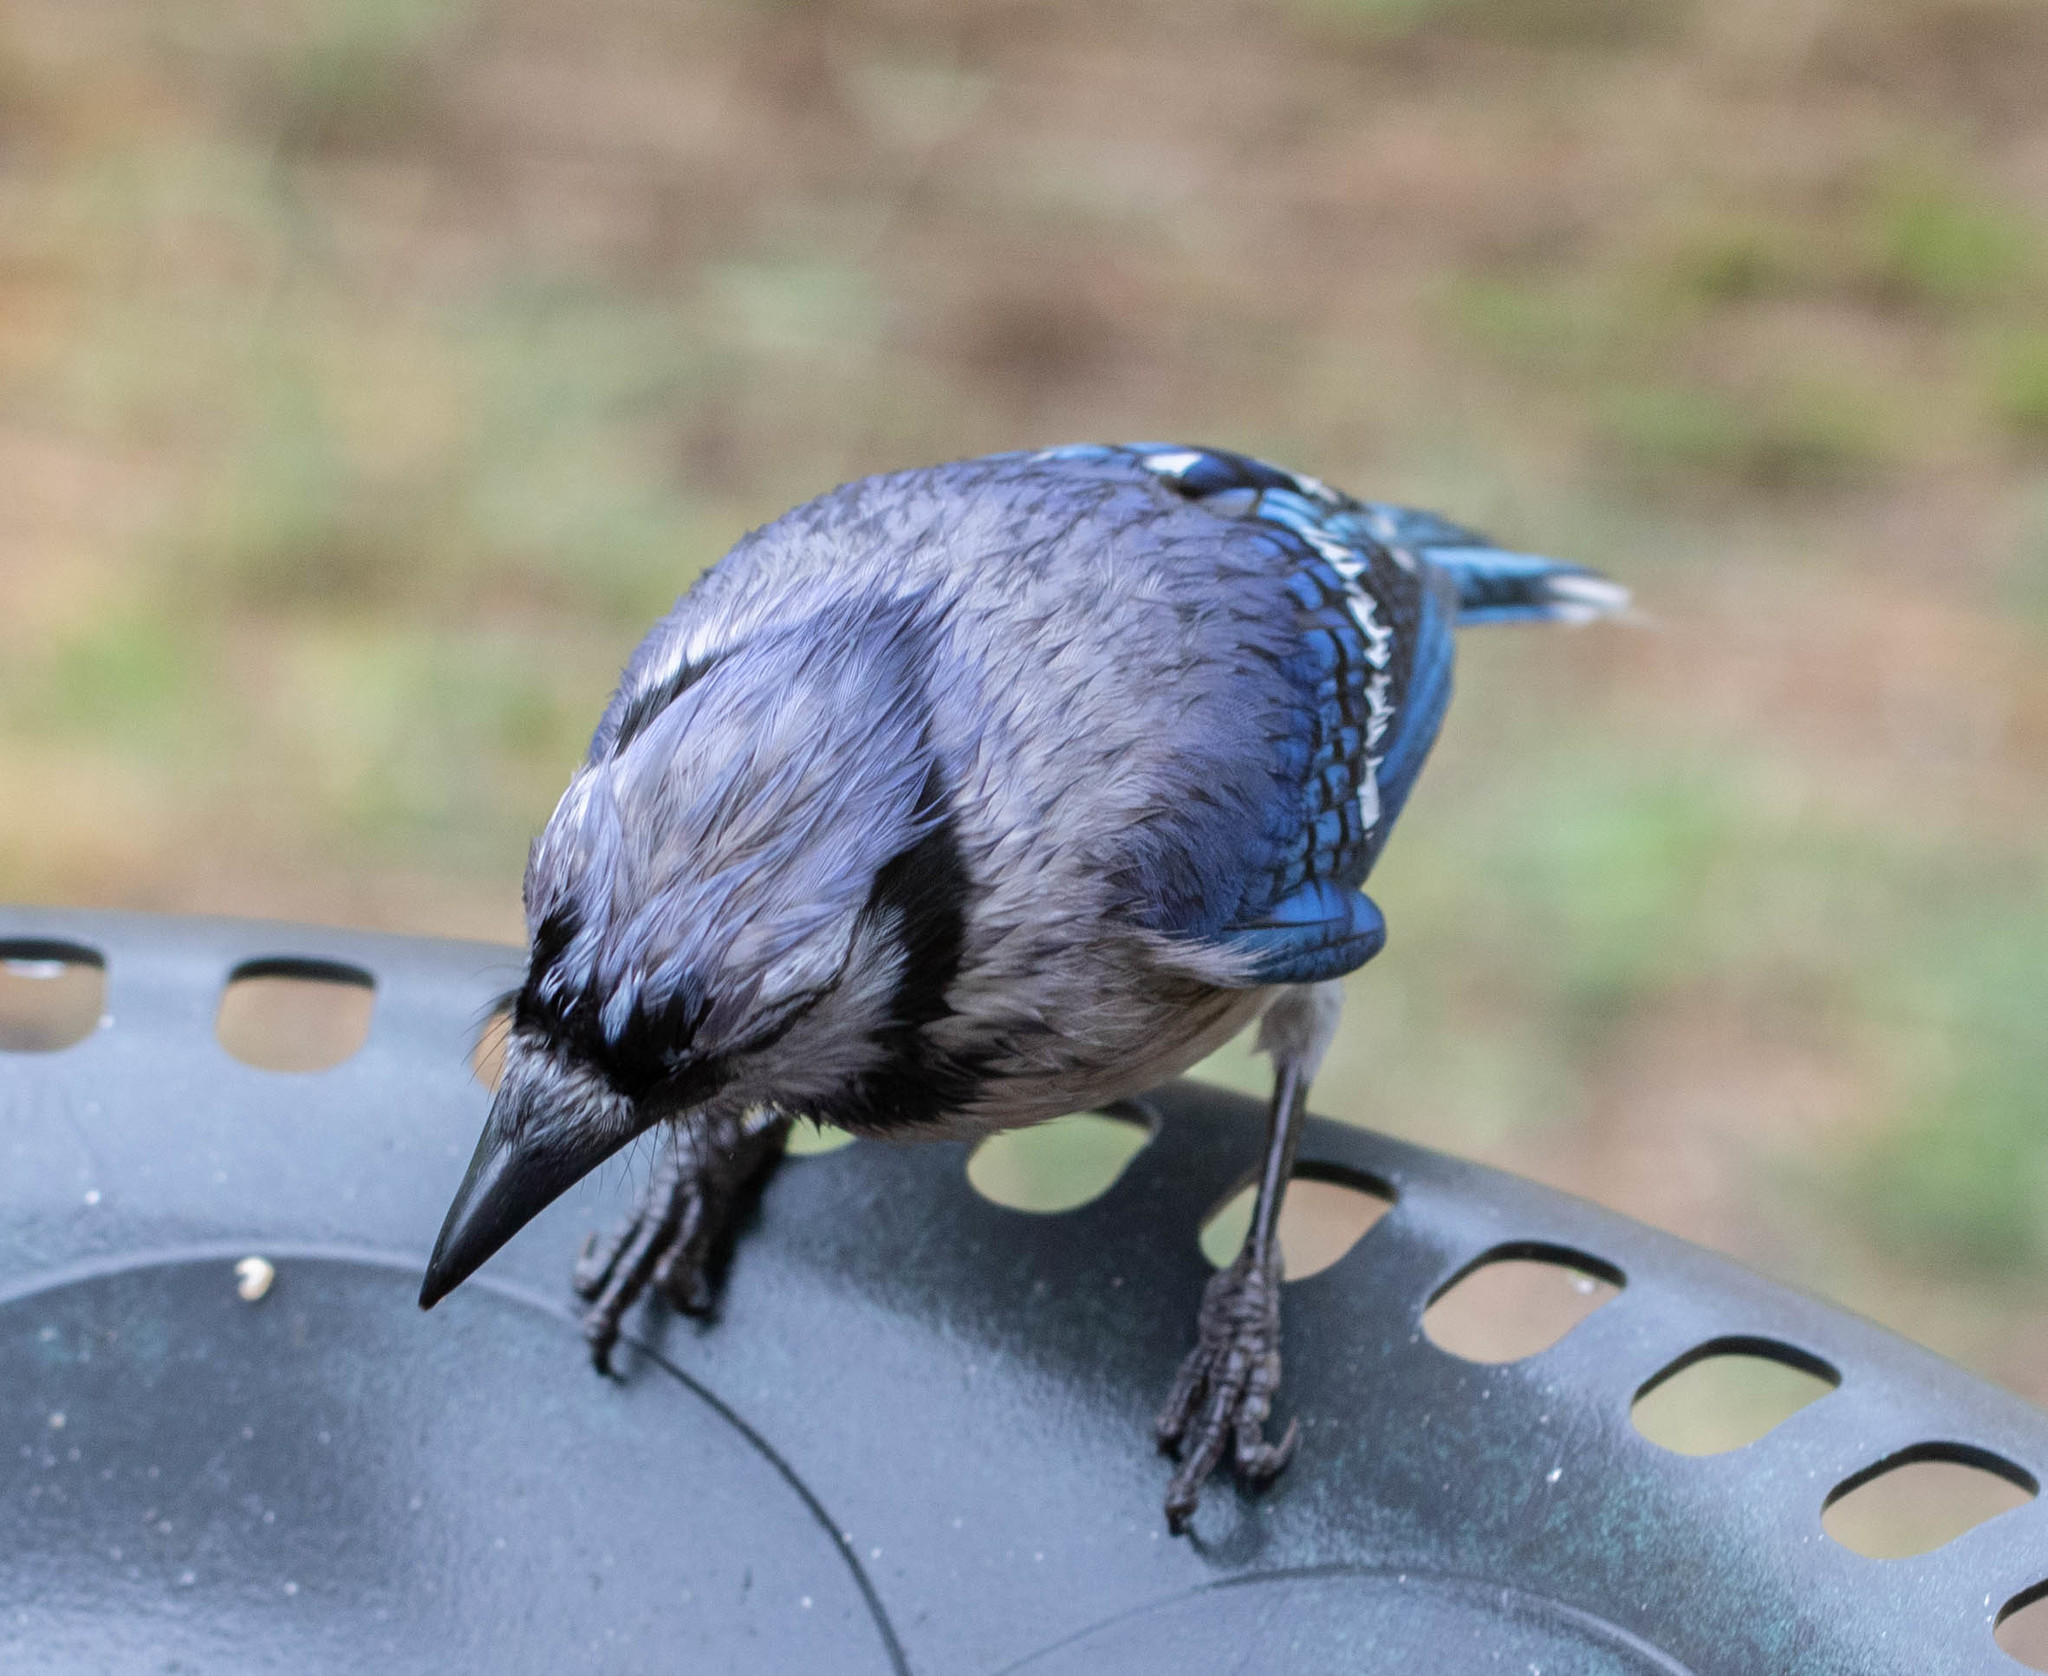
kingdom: Animalia
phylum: Chordata
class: Aves
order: Passeriformes
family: Corvidae
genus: Cyanocitta
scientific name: Cyanocitta cristata
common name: Blue jay
